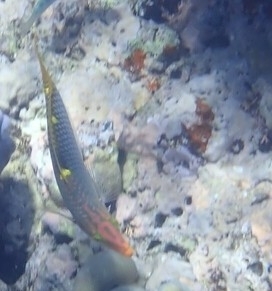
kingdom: Animalia
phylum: Chordata
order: Perciformes
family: Labridae
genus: Halichoeres
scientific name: Halichoeres hortulanus
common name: Checkerboard wrasse
